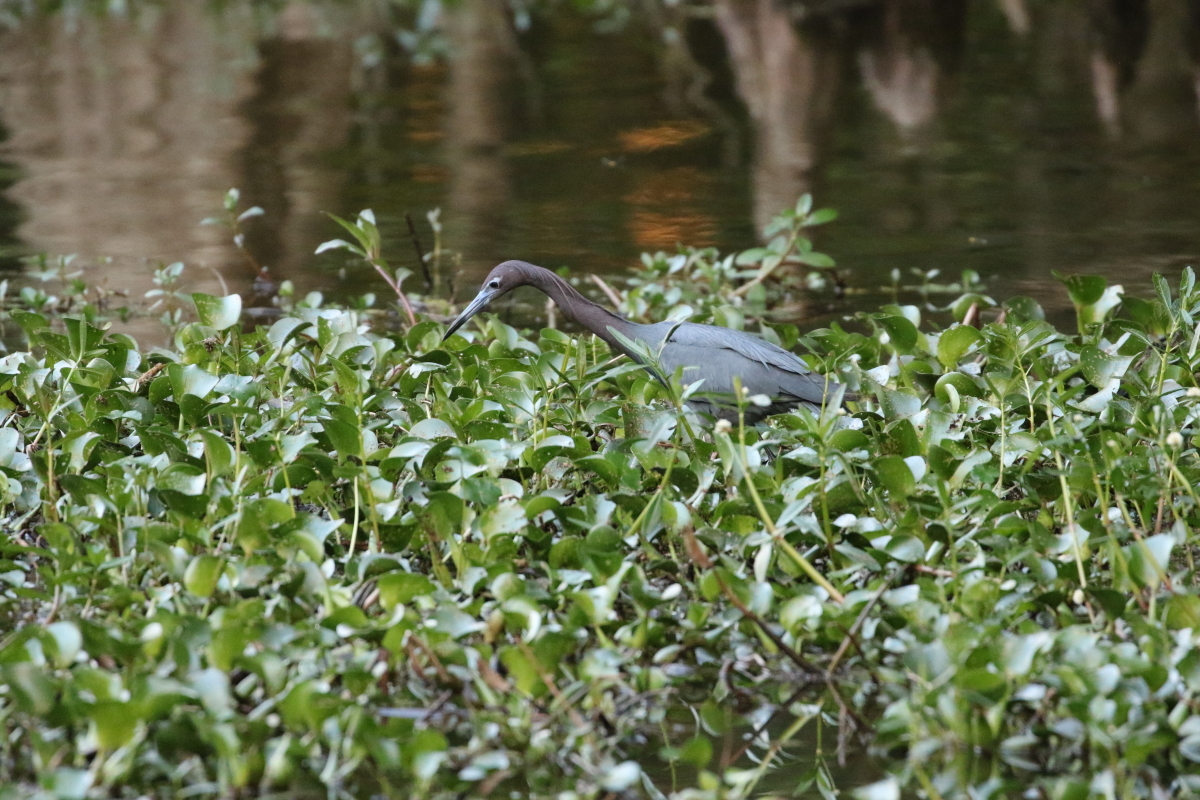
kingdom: Animalia
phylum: Chordata
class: Aves
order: Pelecaniformes
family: Ardeidae
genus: Egretta
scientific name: Egretta caerulea
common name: Little blue heron
